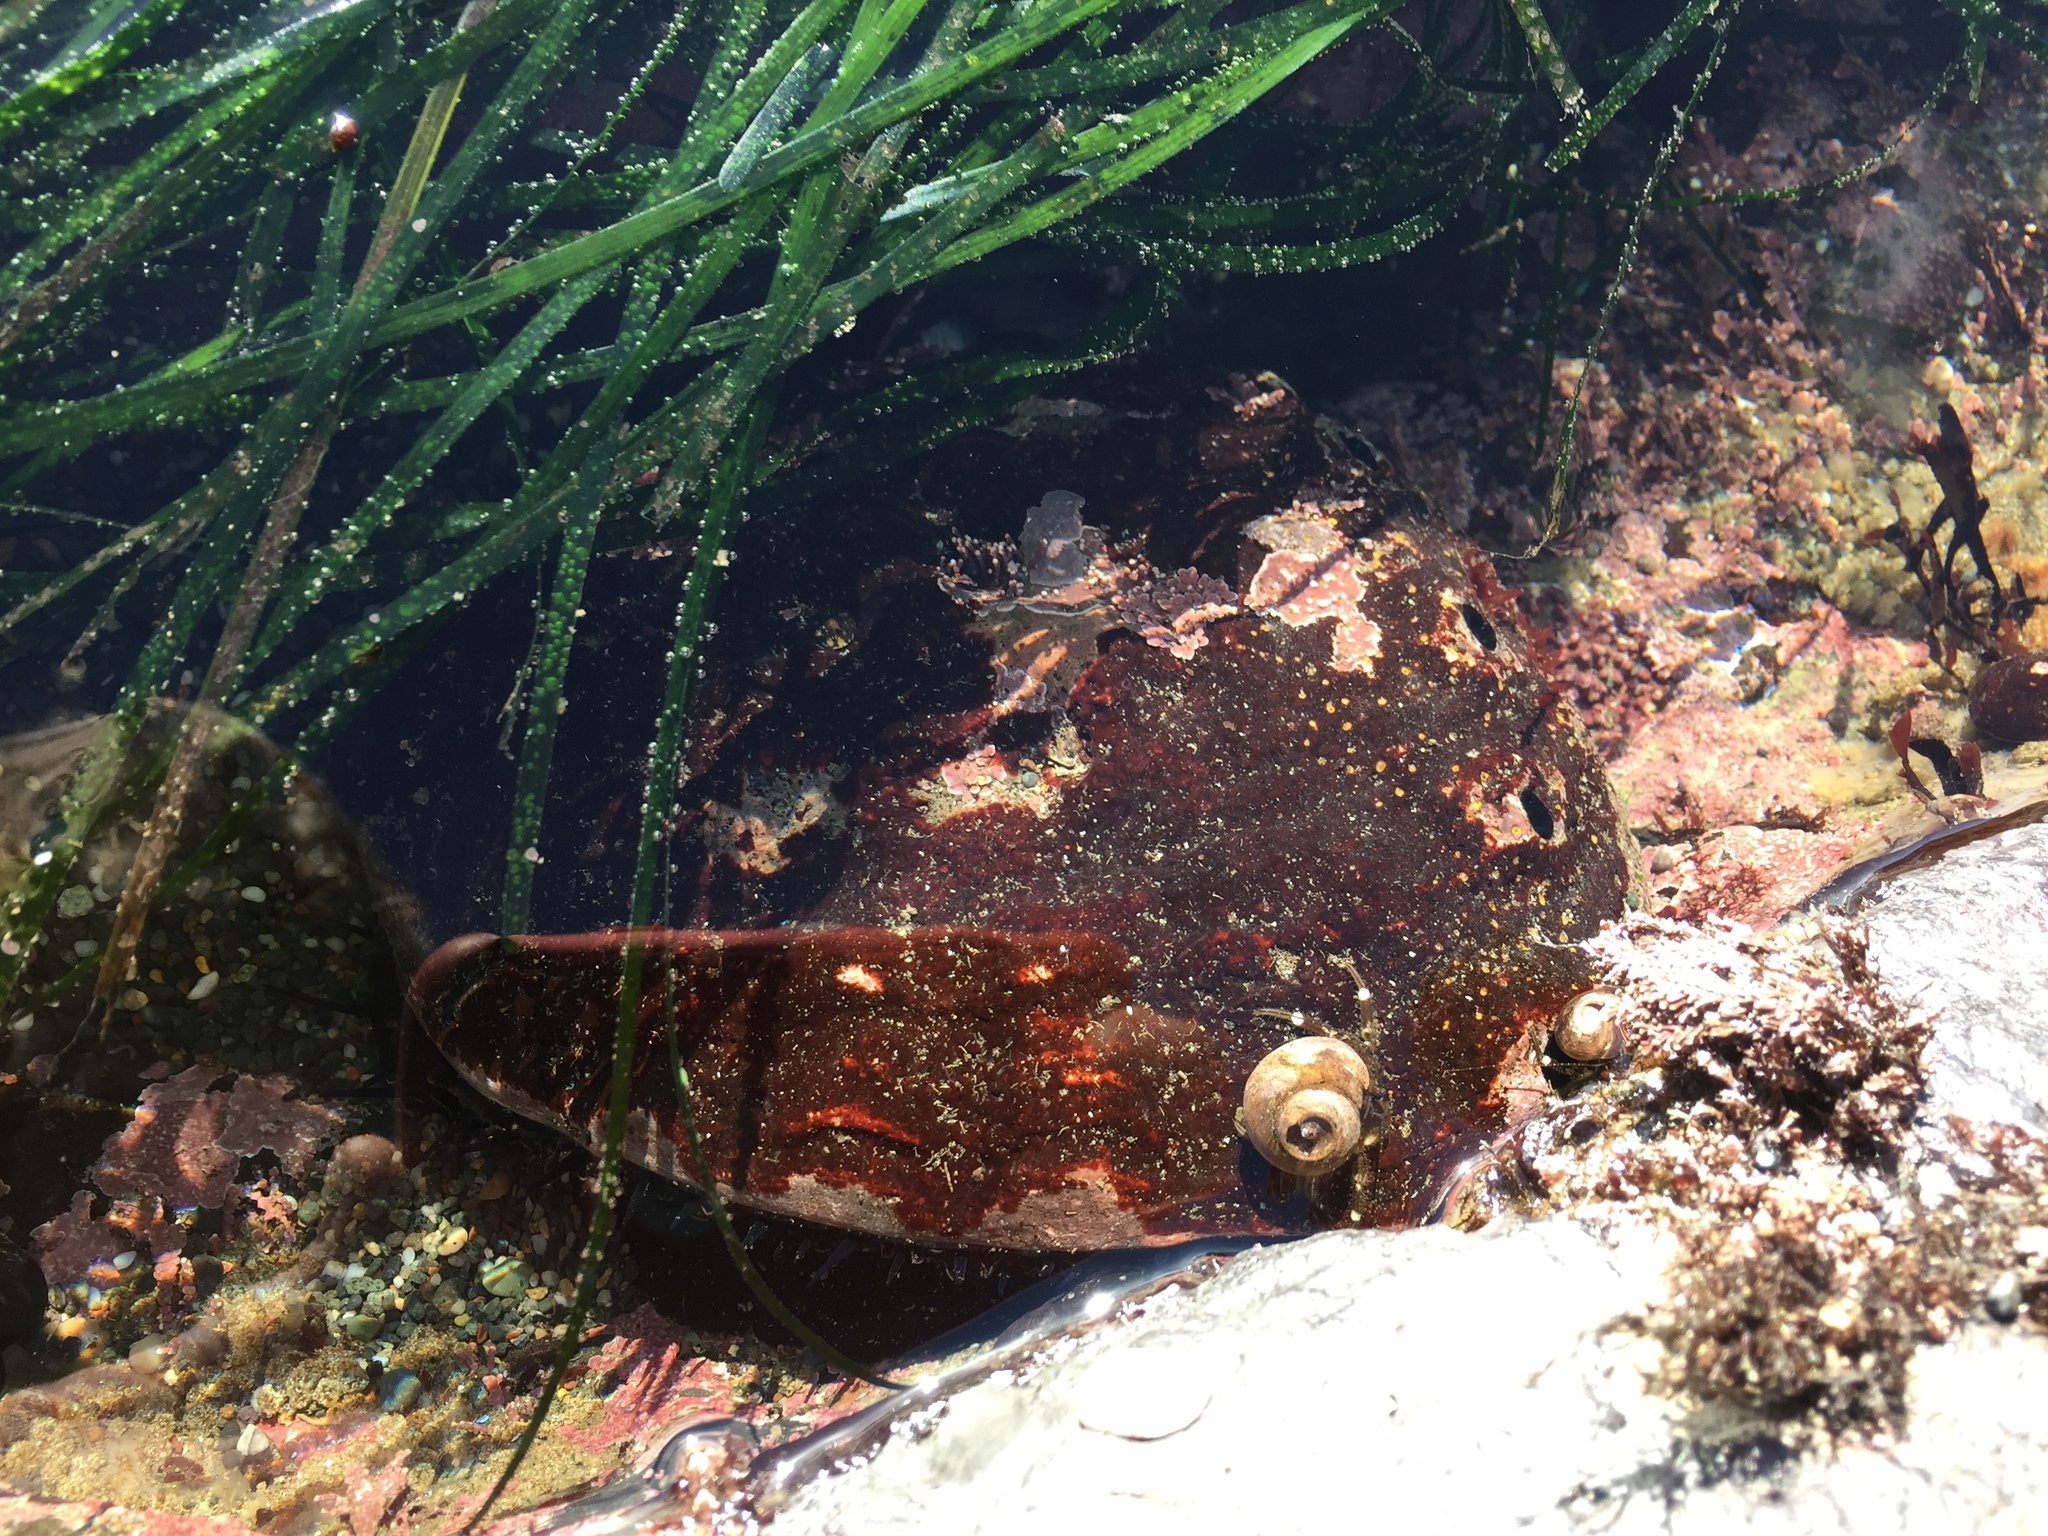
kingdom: Animalia
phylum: Mollusca
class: Gastropoda
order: Lepetellida
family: Haliotidae
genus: Haliotis
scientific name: Haliotis rufescens
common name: Red abalone
